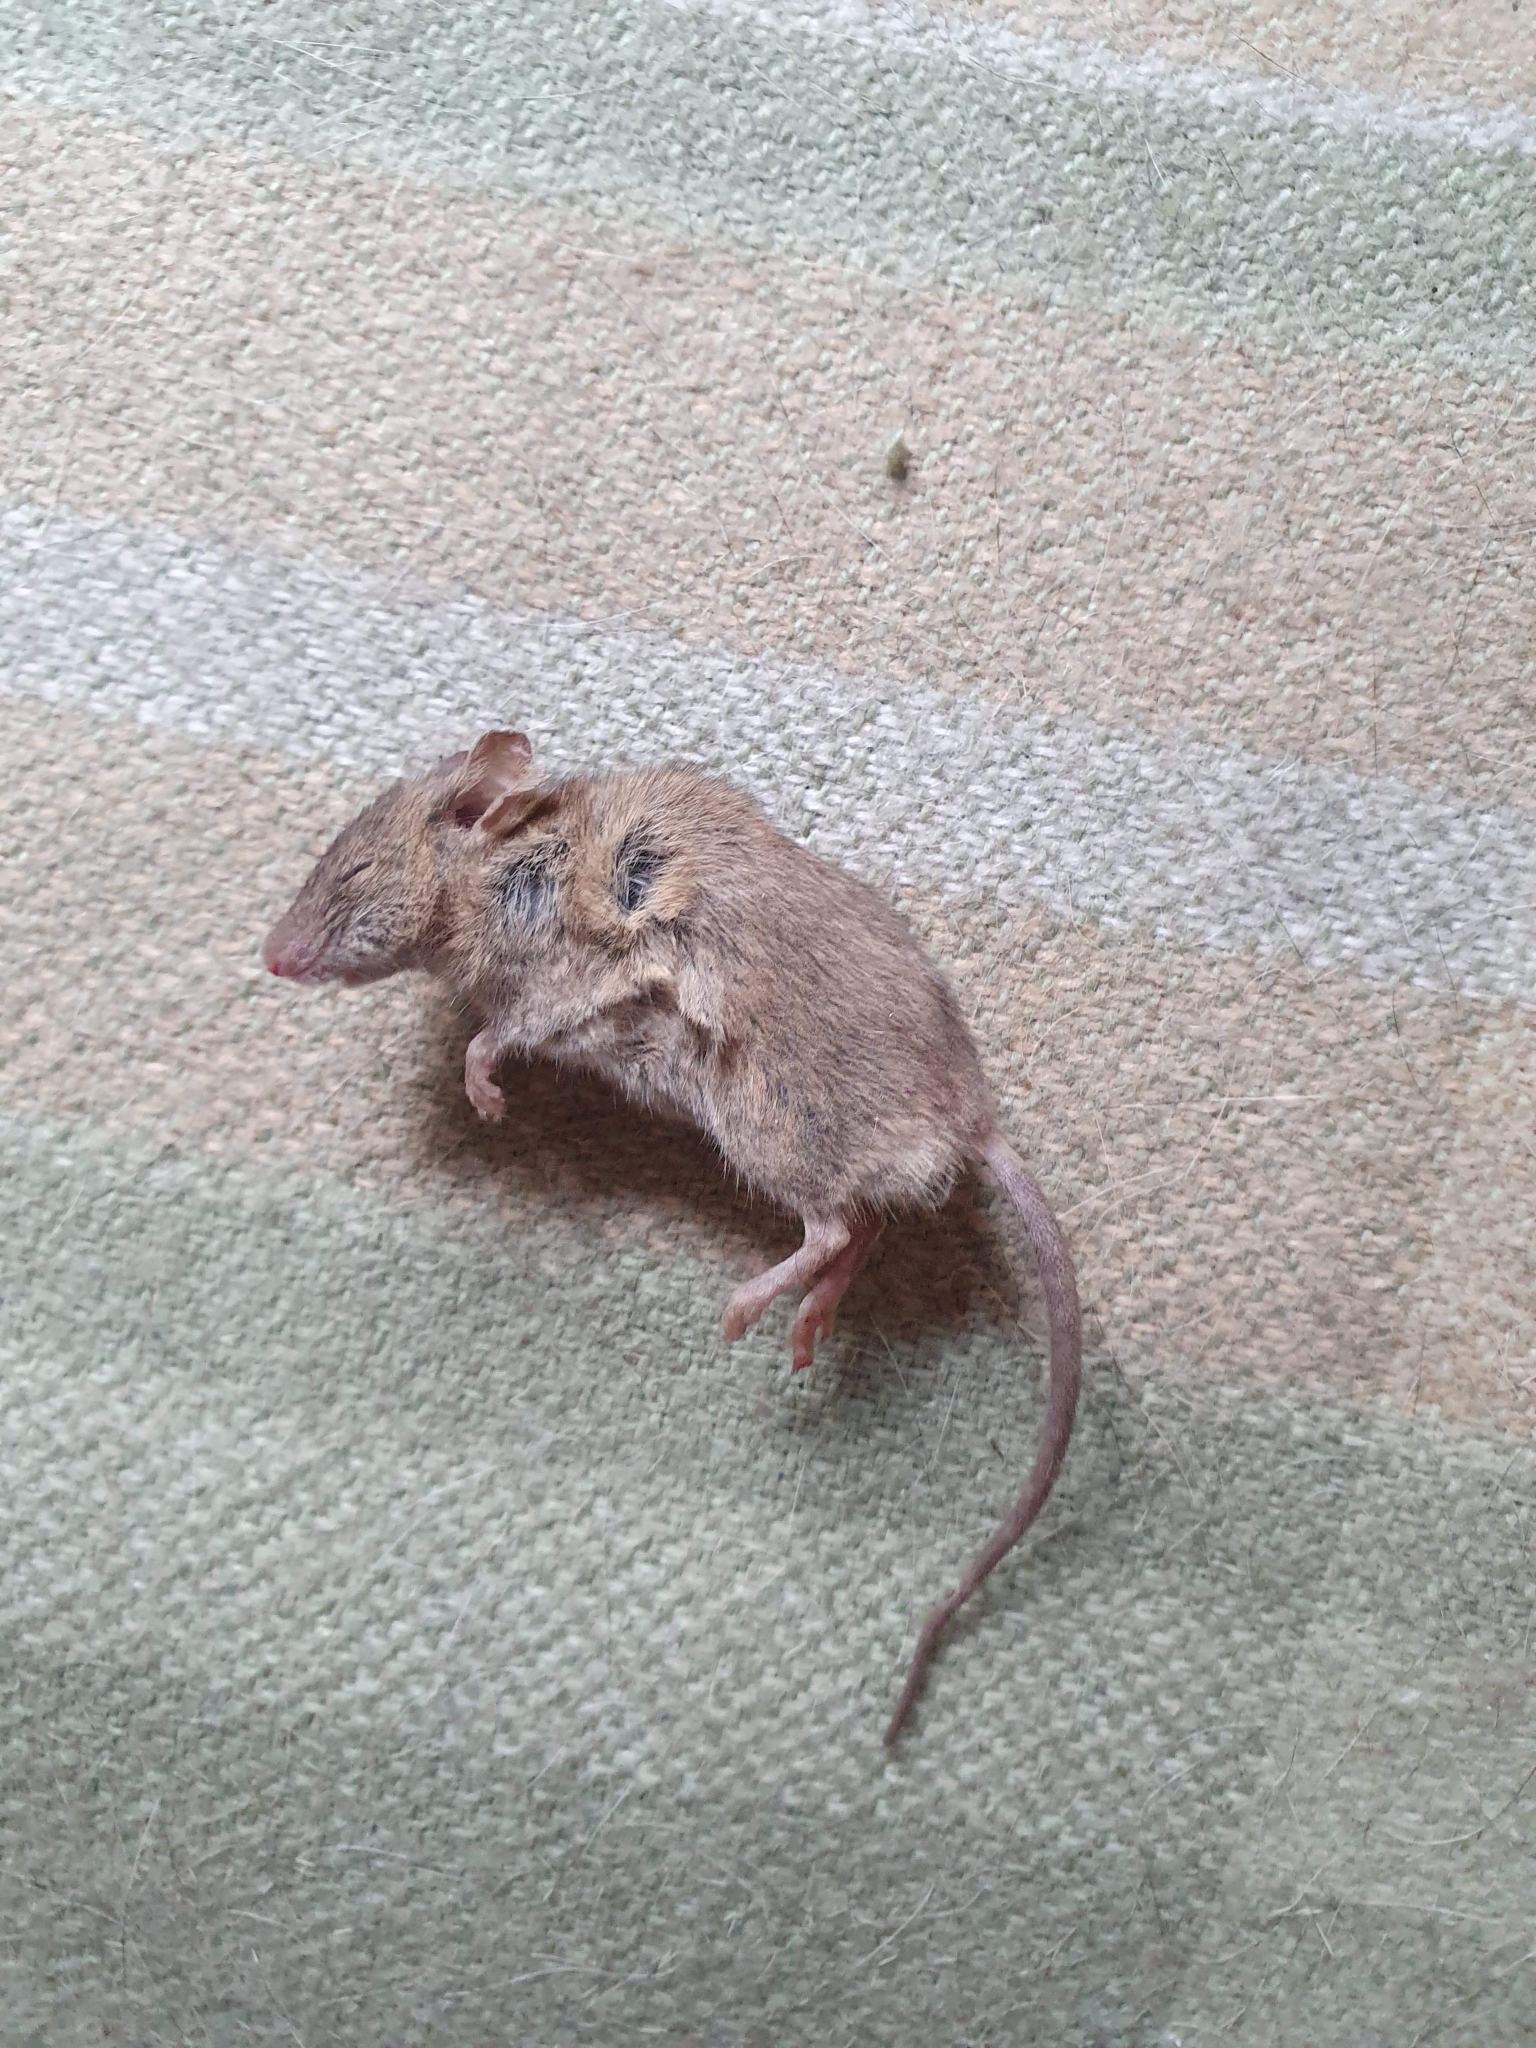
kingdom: Animalia
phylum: Chordata
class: Mammalia
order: Rodentia
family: Muridae
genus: Mus
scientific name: Mus musculus
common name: House mouse
